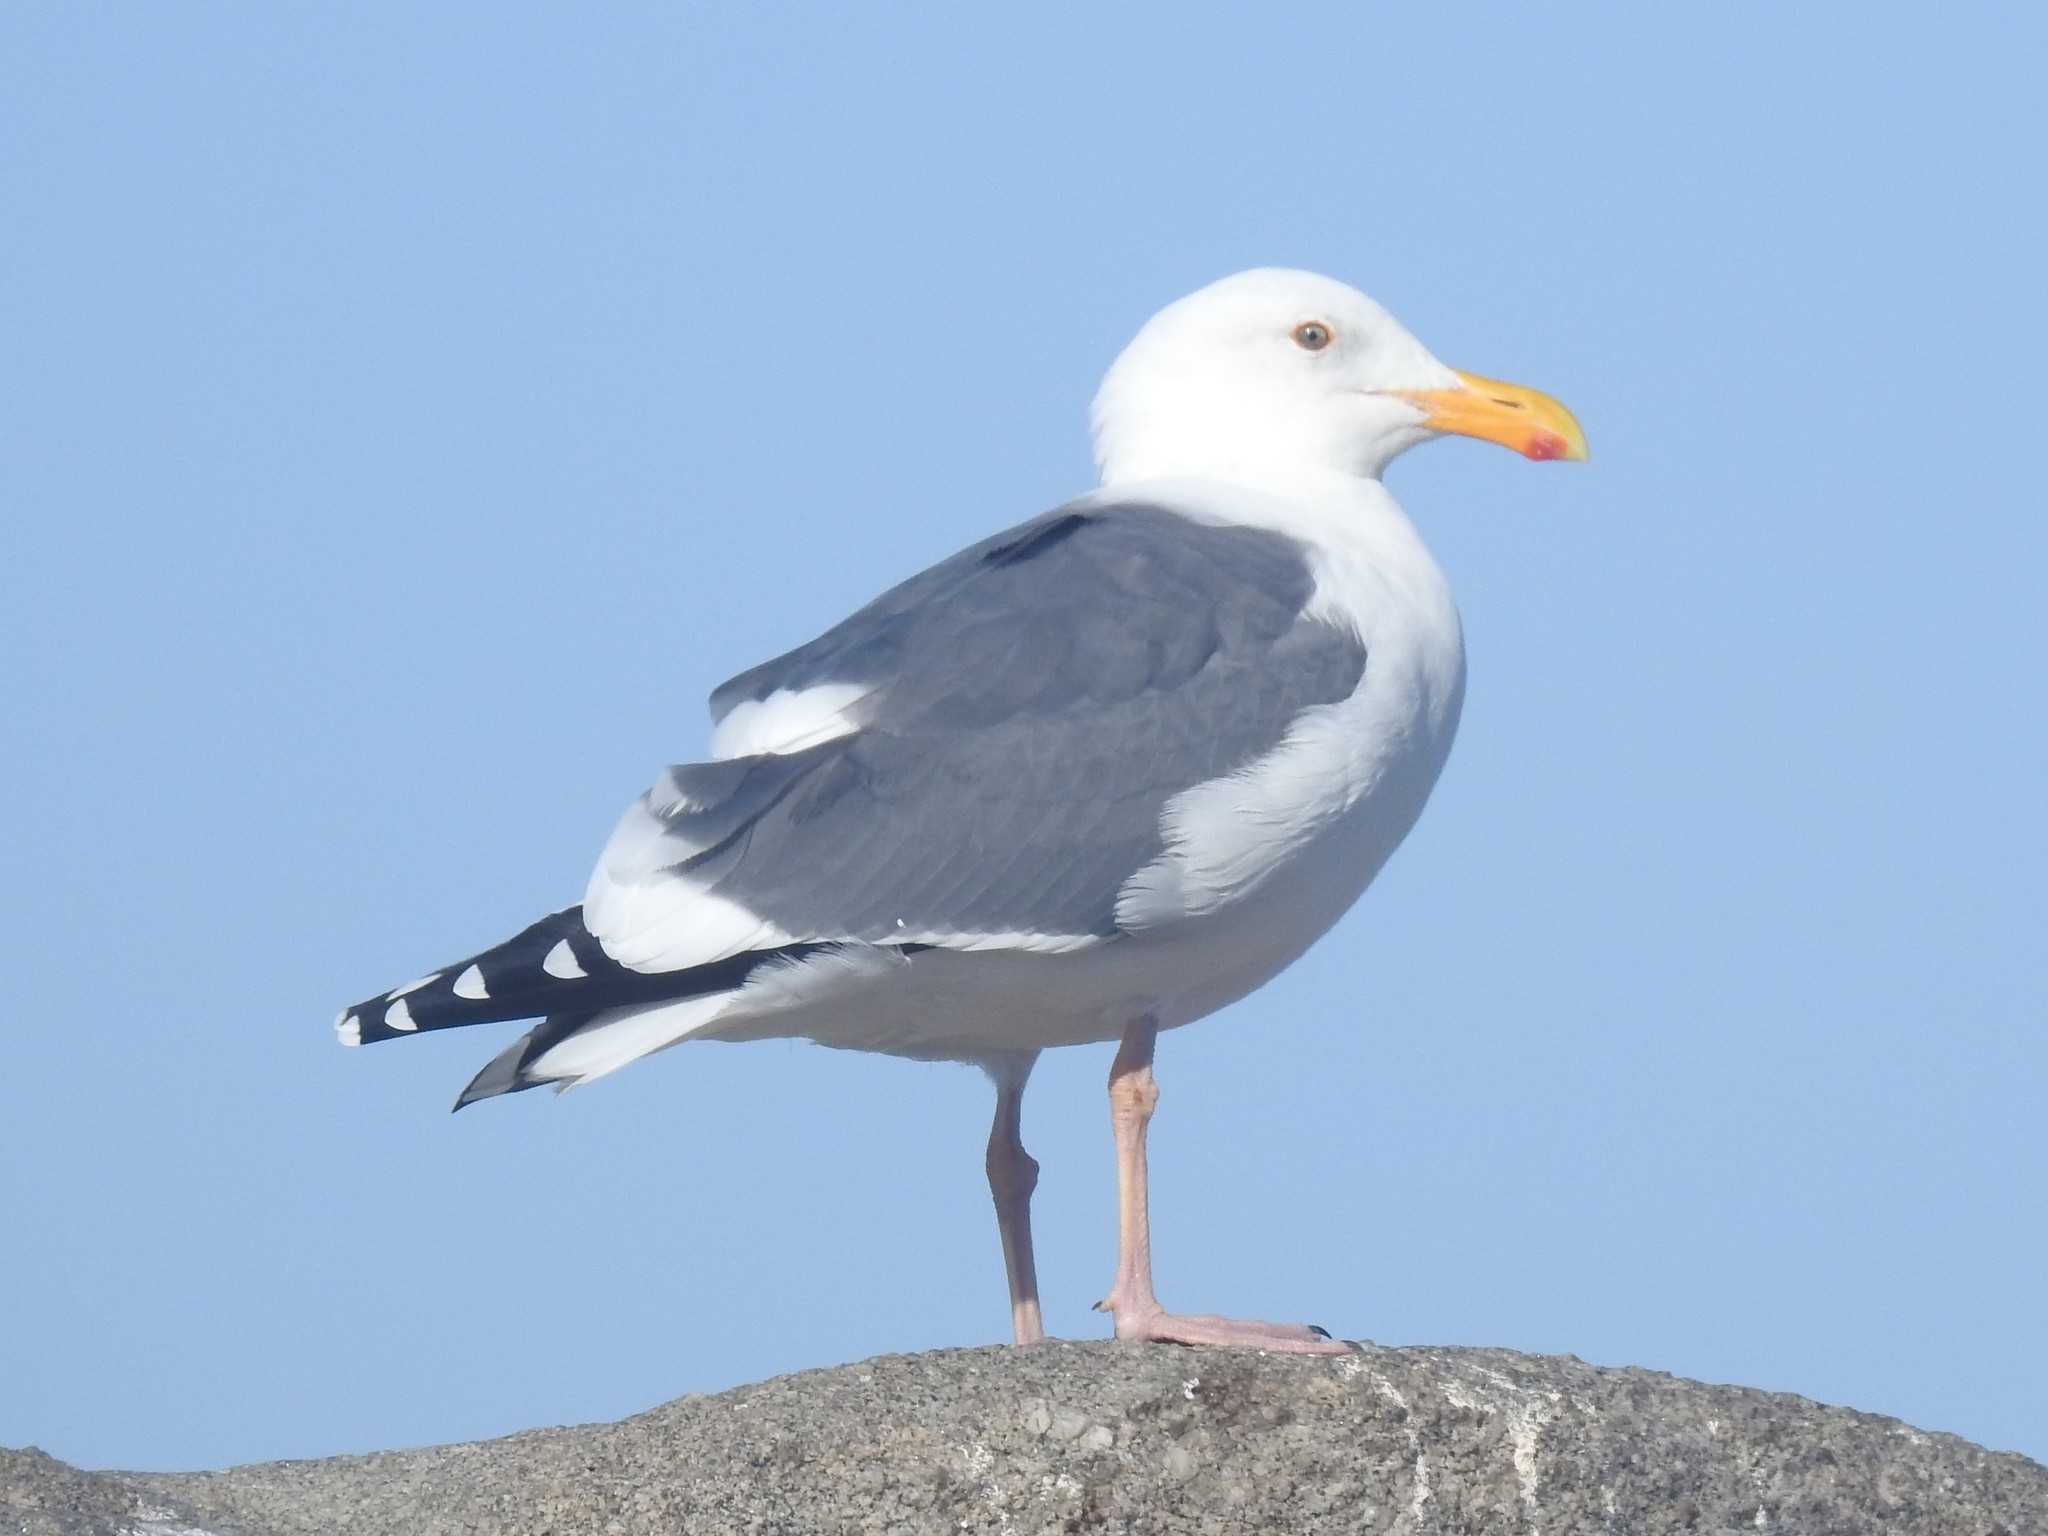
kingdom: Animalia
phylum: Chordata
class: Aves
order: Charadriiformes
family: Laridae
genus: Larus
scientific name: Larus occidentalis
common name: Western gull
